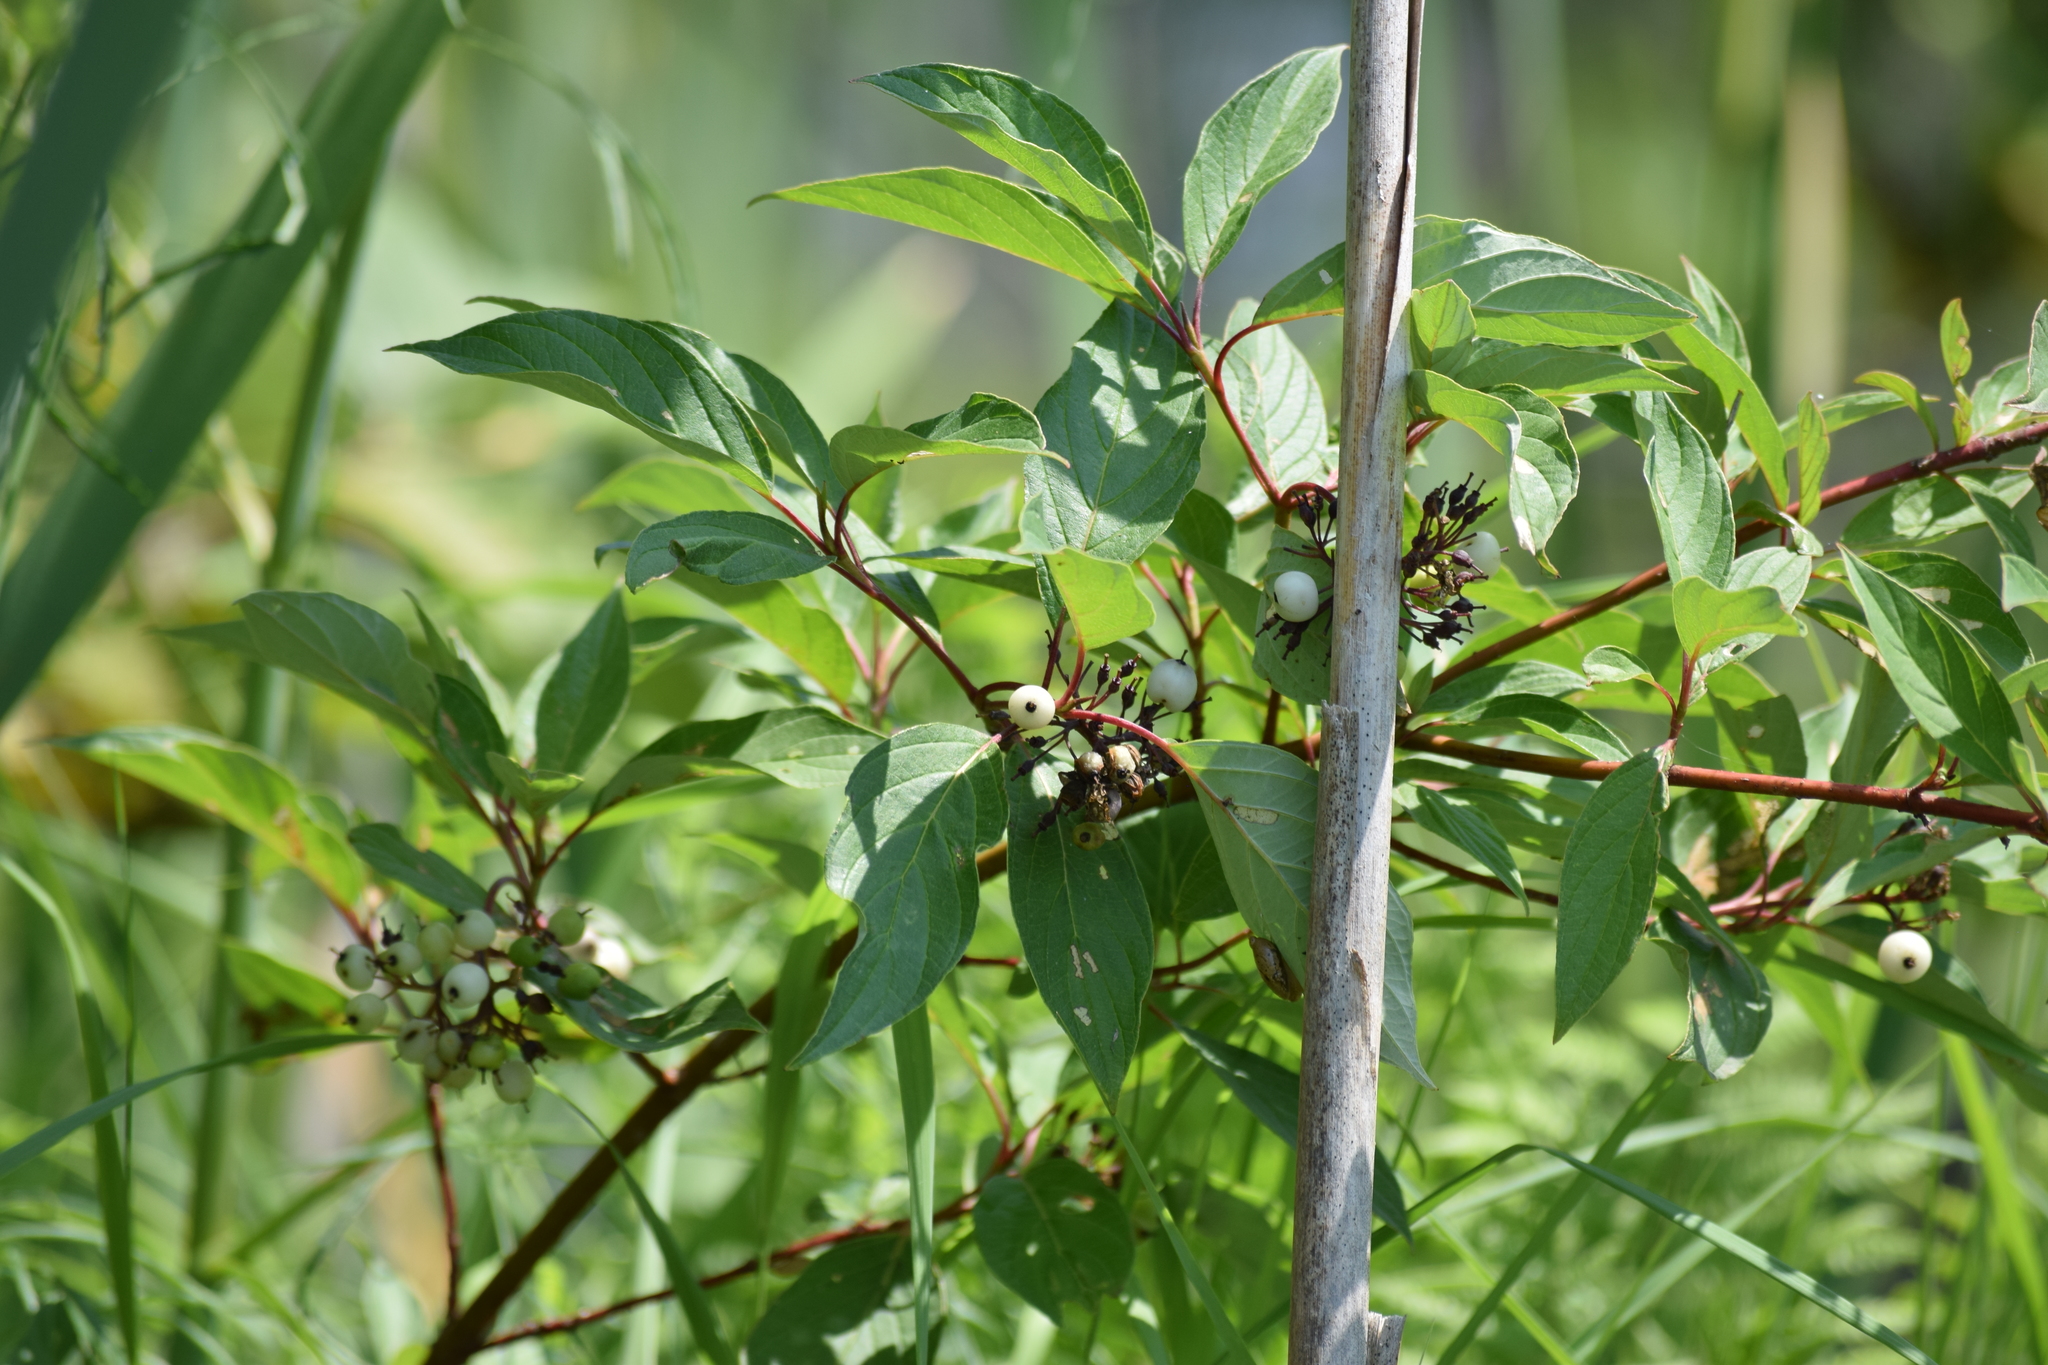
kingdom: Plantae
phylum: Tracheophyta
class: Magnoliopsida
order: Cornales
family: Cornaceae
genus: Cornus
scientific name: Cornus sericea
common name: Red-osier dogwood
